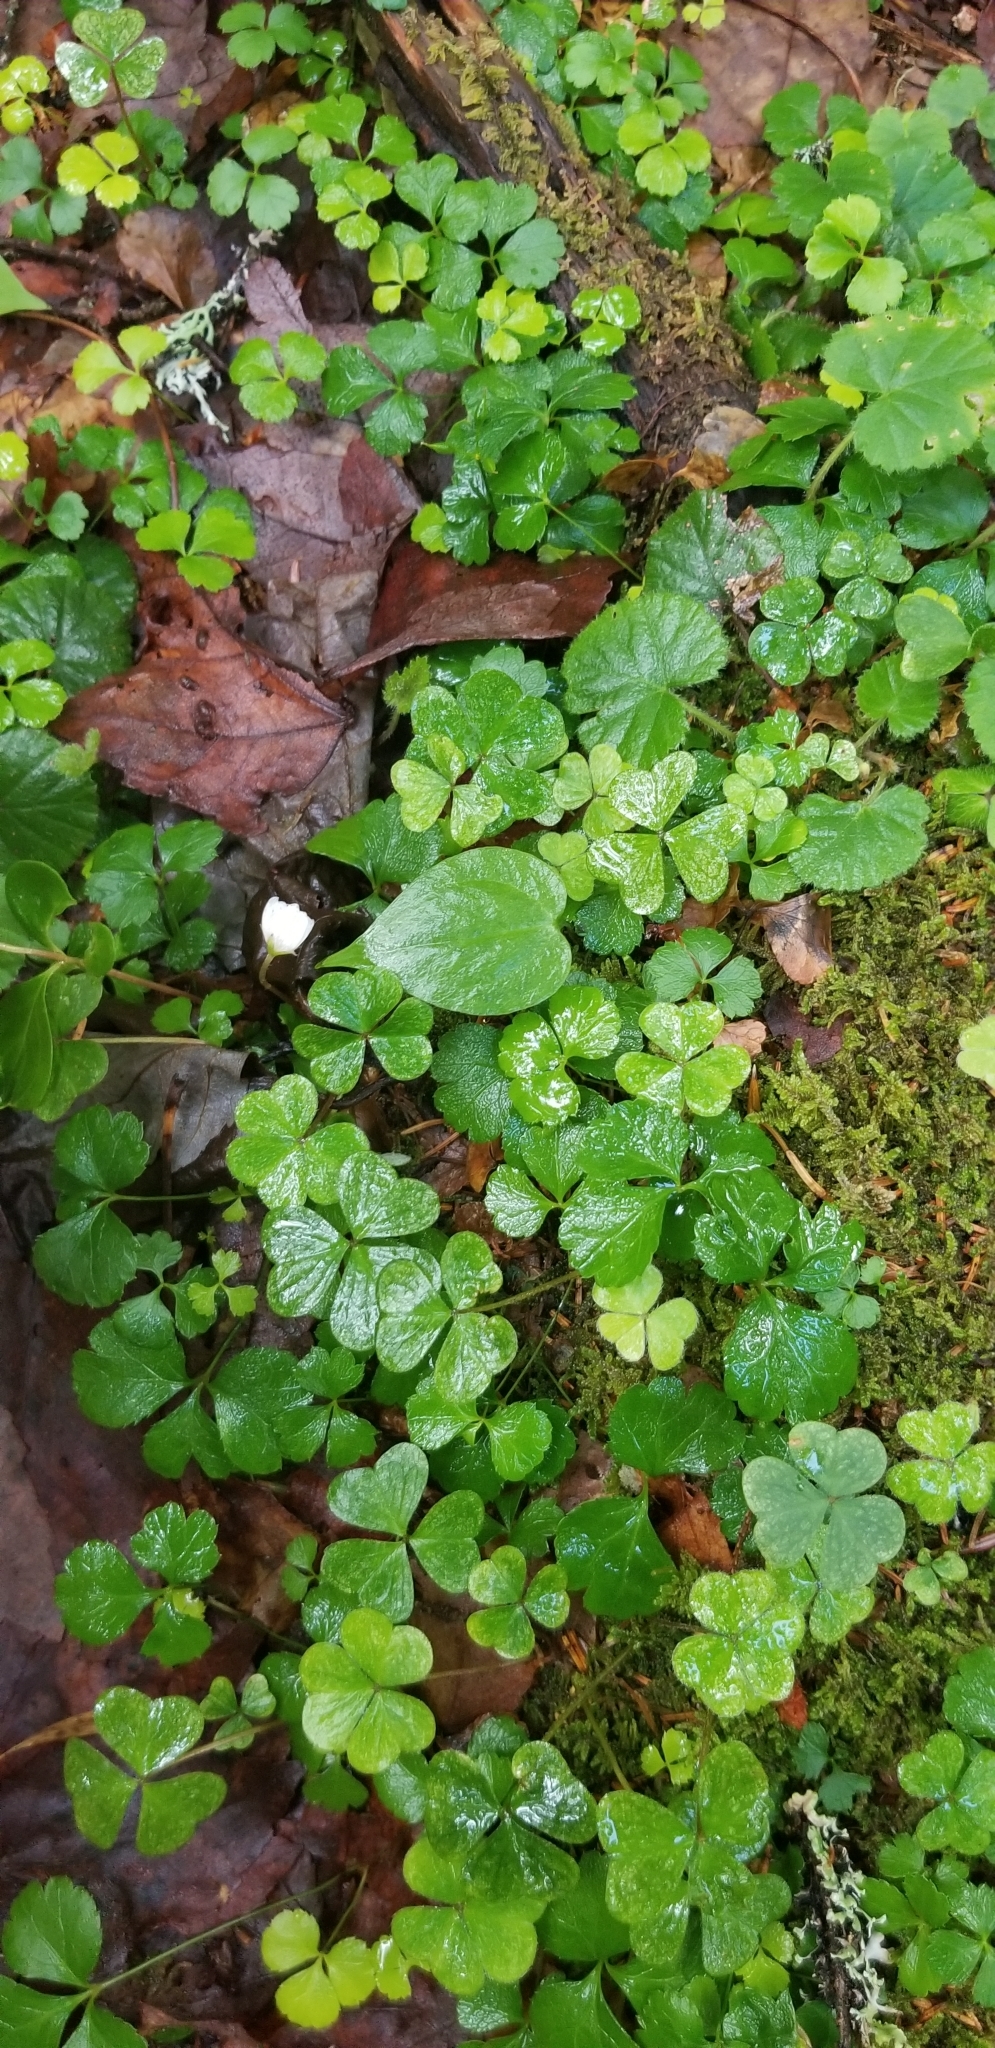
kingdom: Plantae
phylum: Tracheophyta
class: Magnoliopsida
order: Oxalidales
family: Oxalidaceae
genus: Oxalis
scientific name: Oxalis montana
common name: American wood-sorrel
